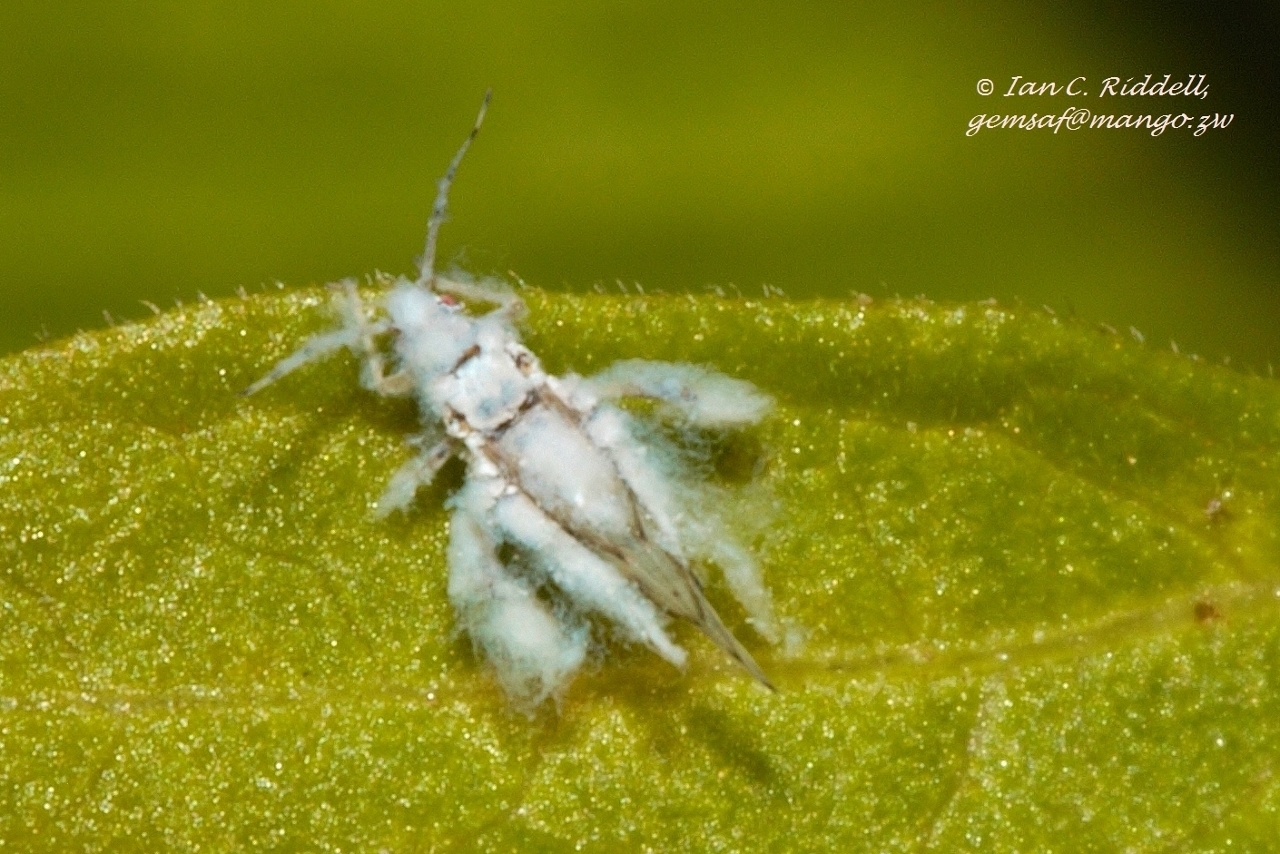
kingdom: Animalia
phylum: Arthropoda
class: Insecta
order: Hemiptera
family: Aphididae
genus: Shivaphis
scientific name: Shivaphis celti
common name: Asian wooly hackberry aphid
